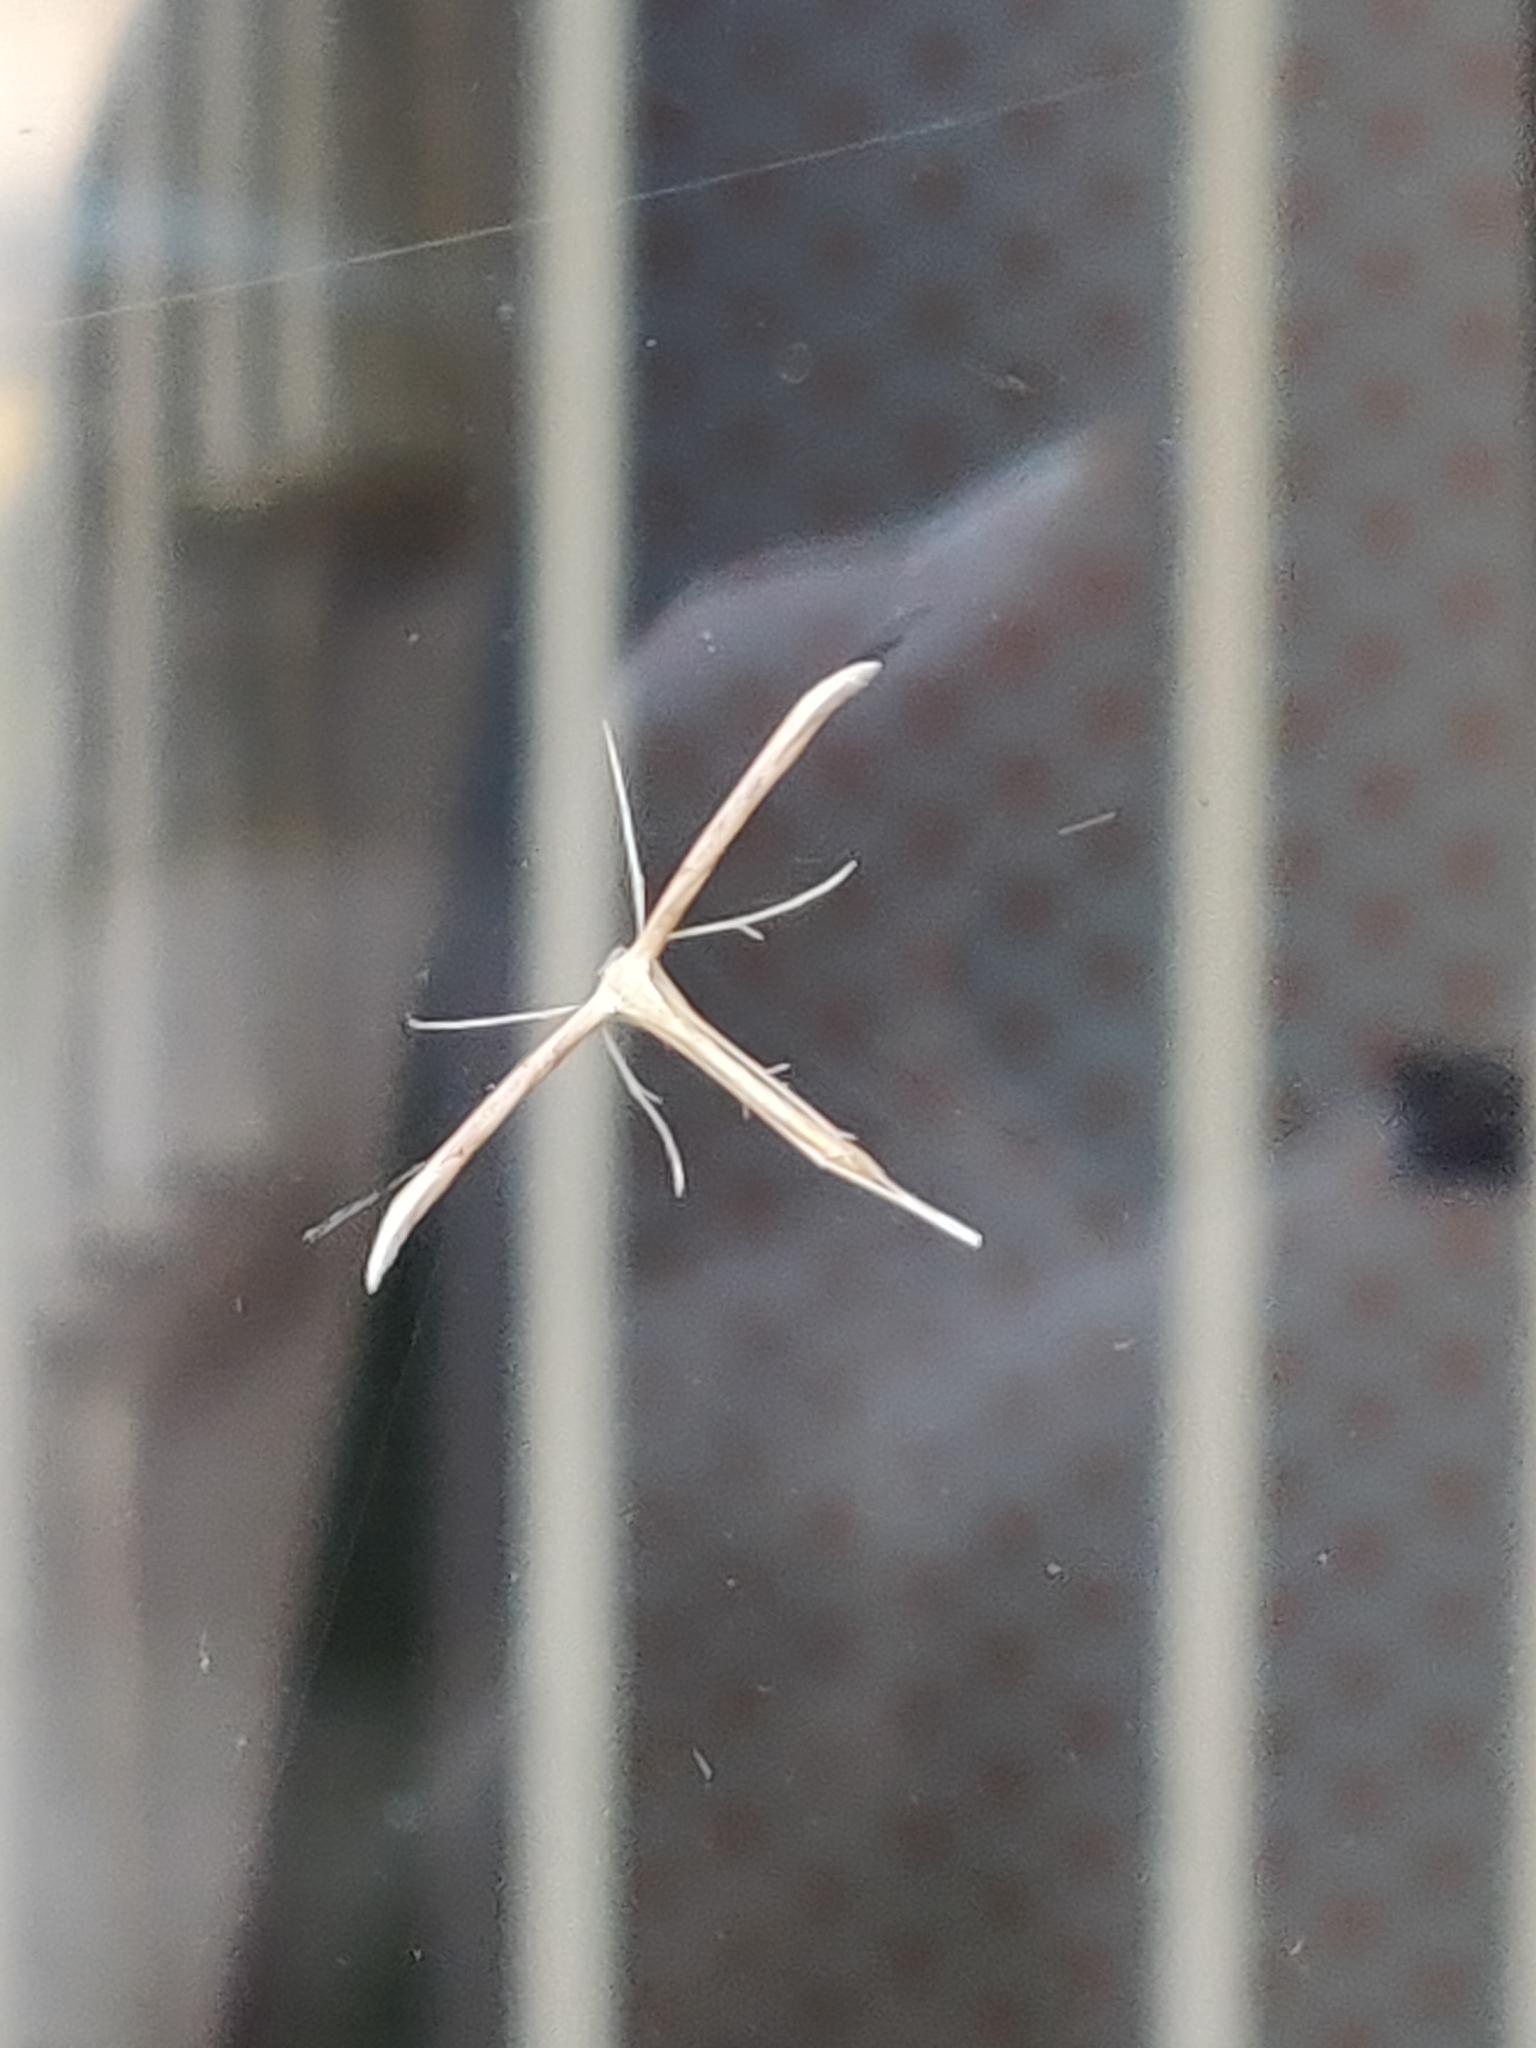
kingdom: Animalia
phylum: Arthropoda
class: Insecta
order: Lepidoptera
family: Pterophoridae
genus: Emmelina
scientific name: Emmelina monodactyla
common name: Common plume
